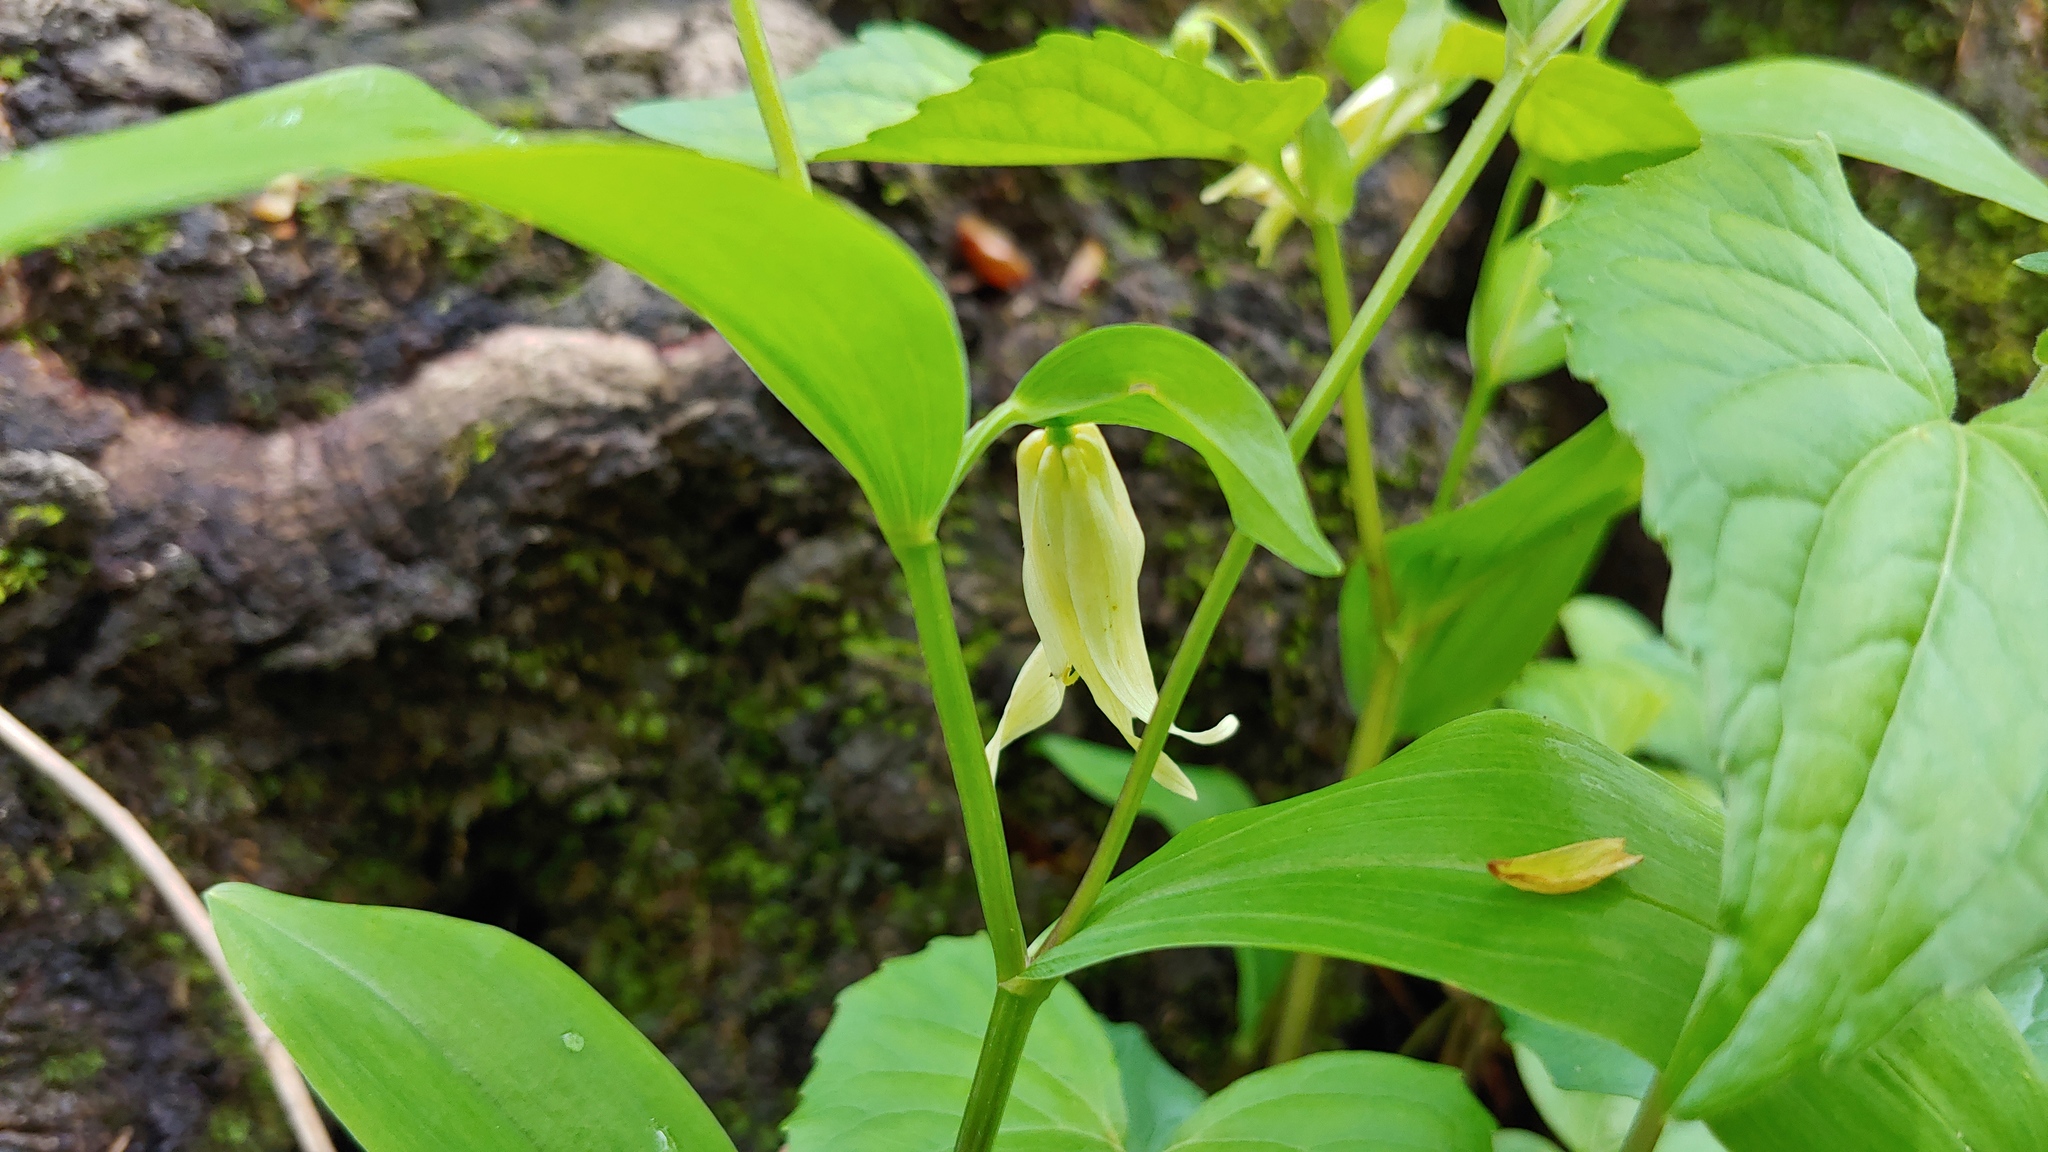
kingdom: Plantae
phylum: Tracheophyta
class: Liliopsida
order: Liliales
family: Colchicaceae
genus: Uvularia
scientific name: Uvularia floridana
